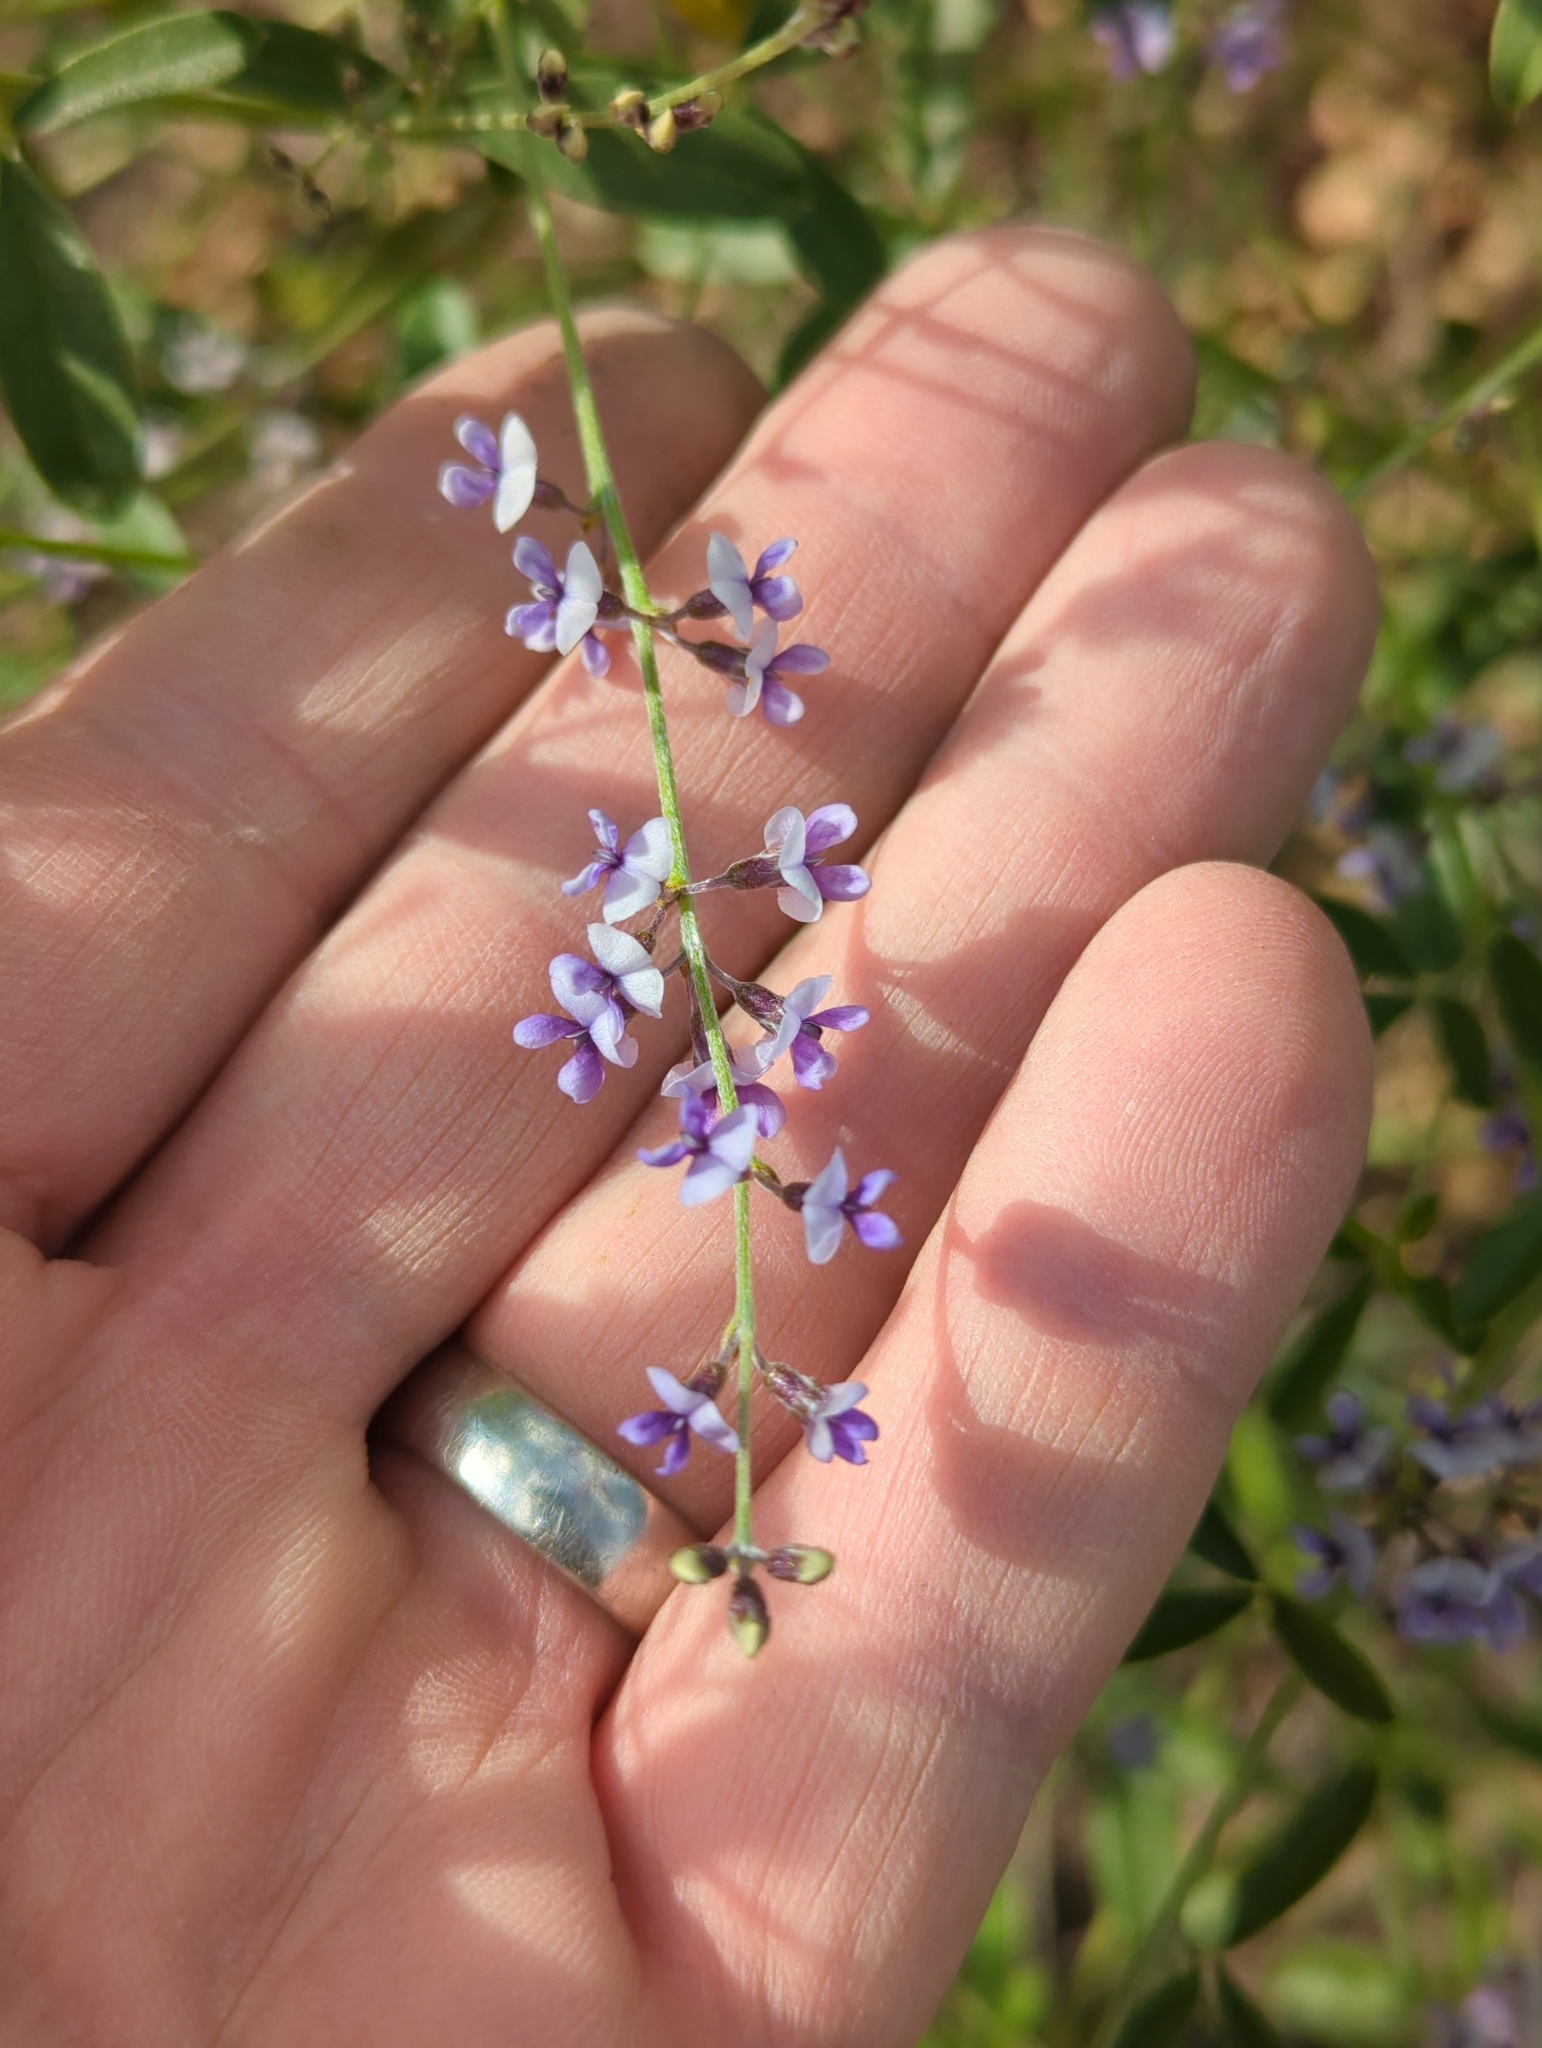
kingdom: Plantae
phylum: Tracheophyta
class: Magnoliopsida
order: Fabales
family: Fabaceae
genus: Pediomelum
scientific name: Pediomelum tenuiflorum
